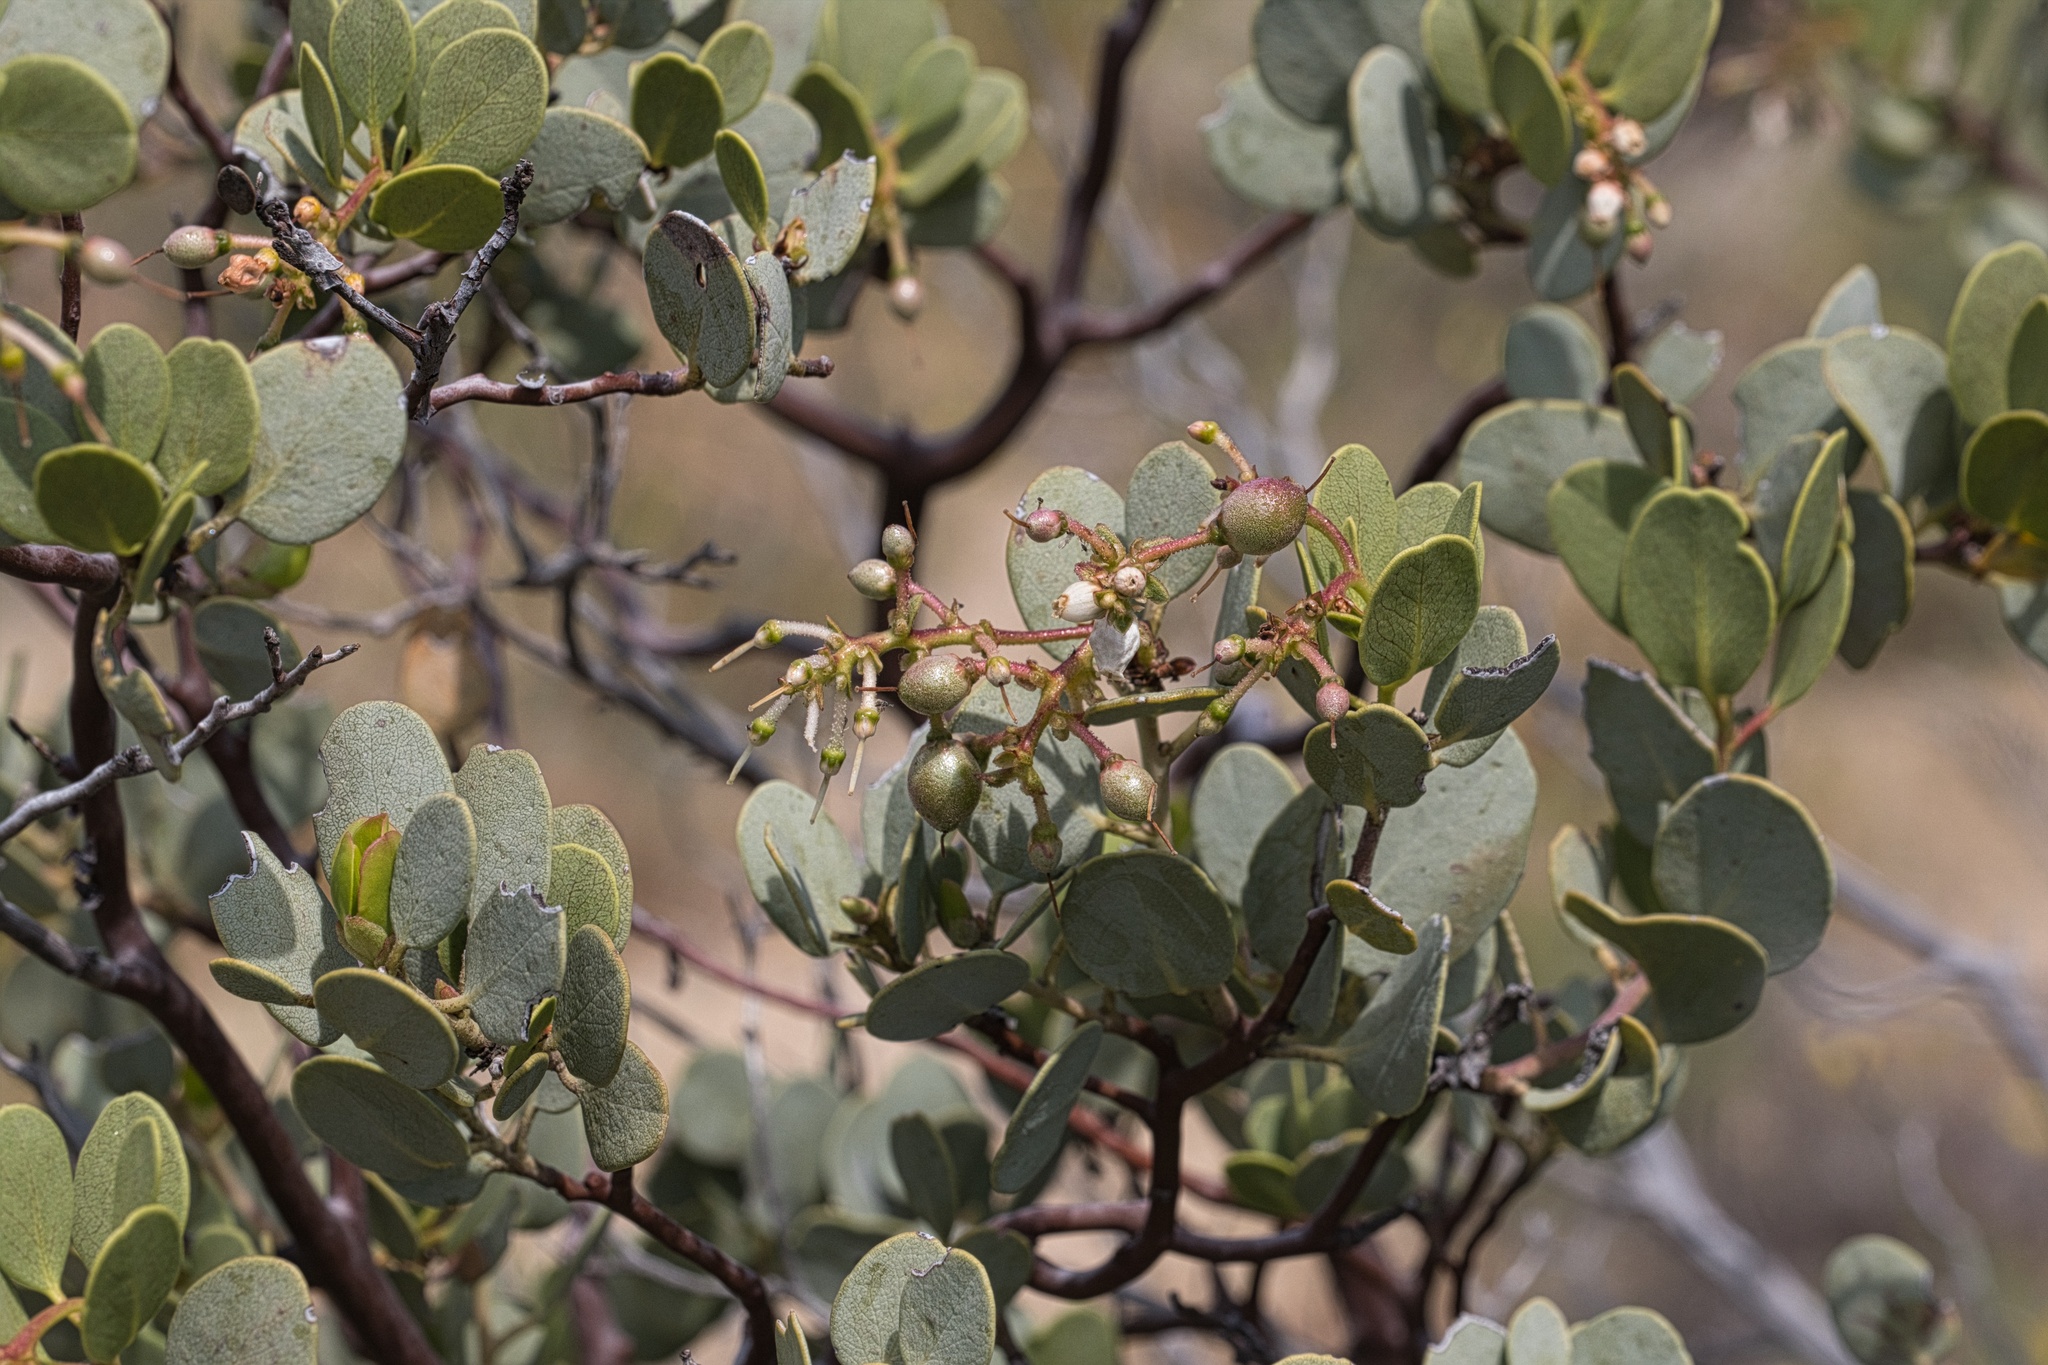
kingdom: Plantae
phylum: Tracheophyta
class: Magnoliopsida
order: Ericales
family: Ericaceae
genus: Arctostaphylos
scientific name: Arctostaphylos glauca
